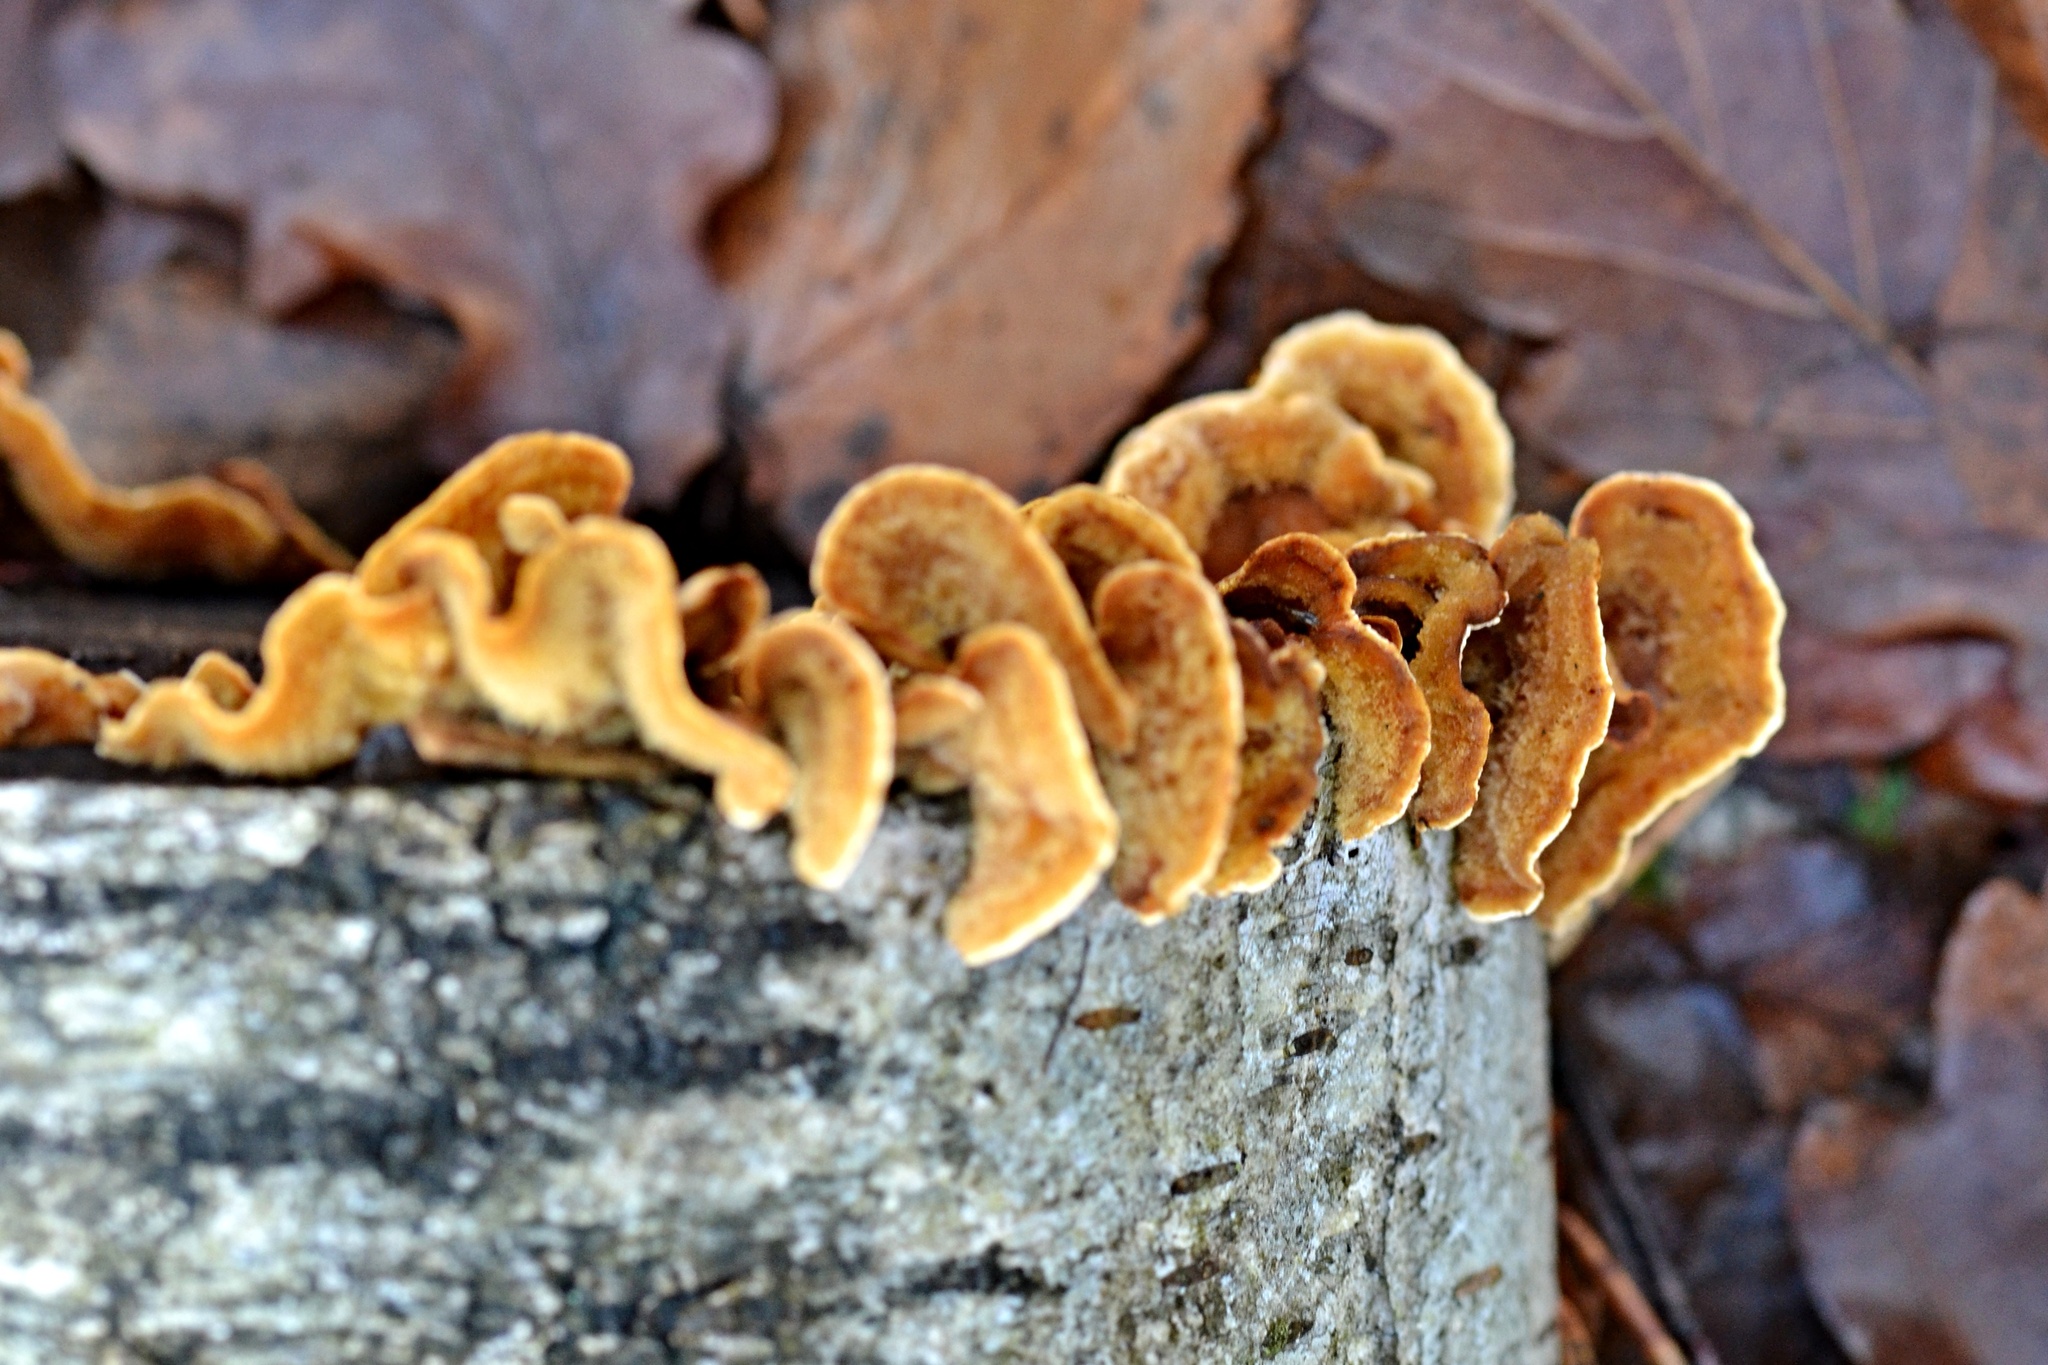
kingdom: Fungi
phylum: Basidiomycota
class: Agaricomycetes
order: Russulales
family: Stereaceae
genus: Stereum
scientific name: Stereum hirsutum
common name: Hairy curtain crust
